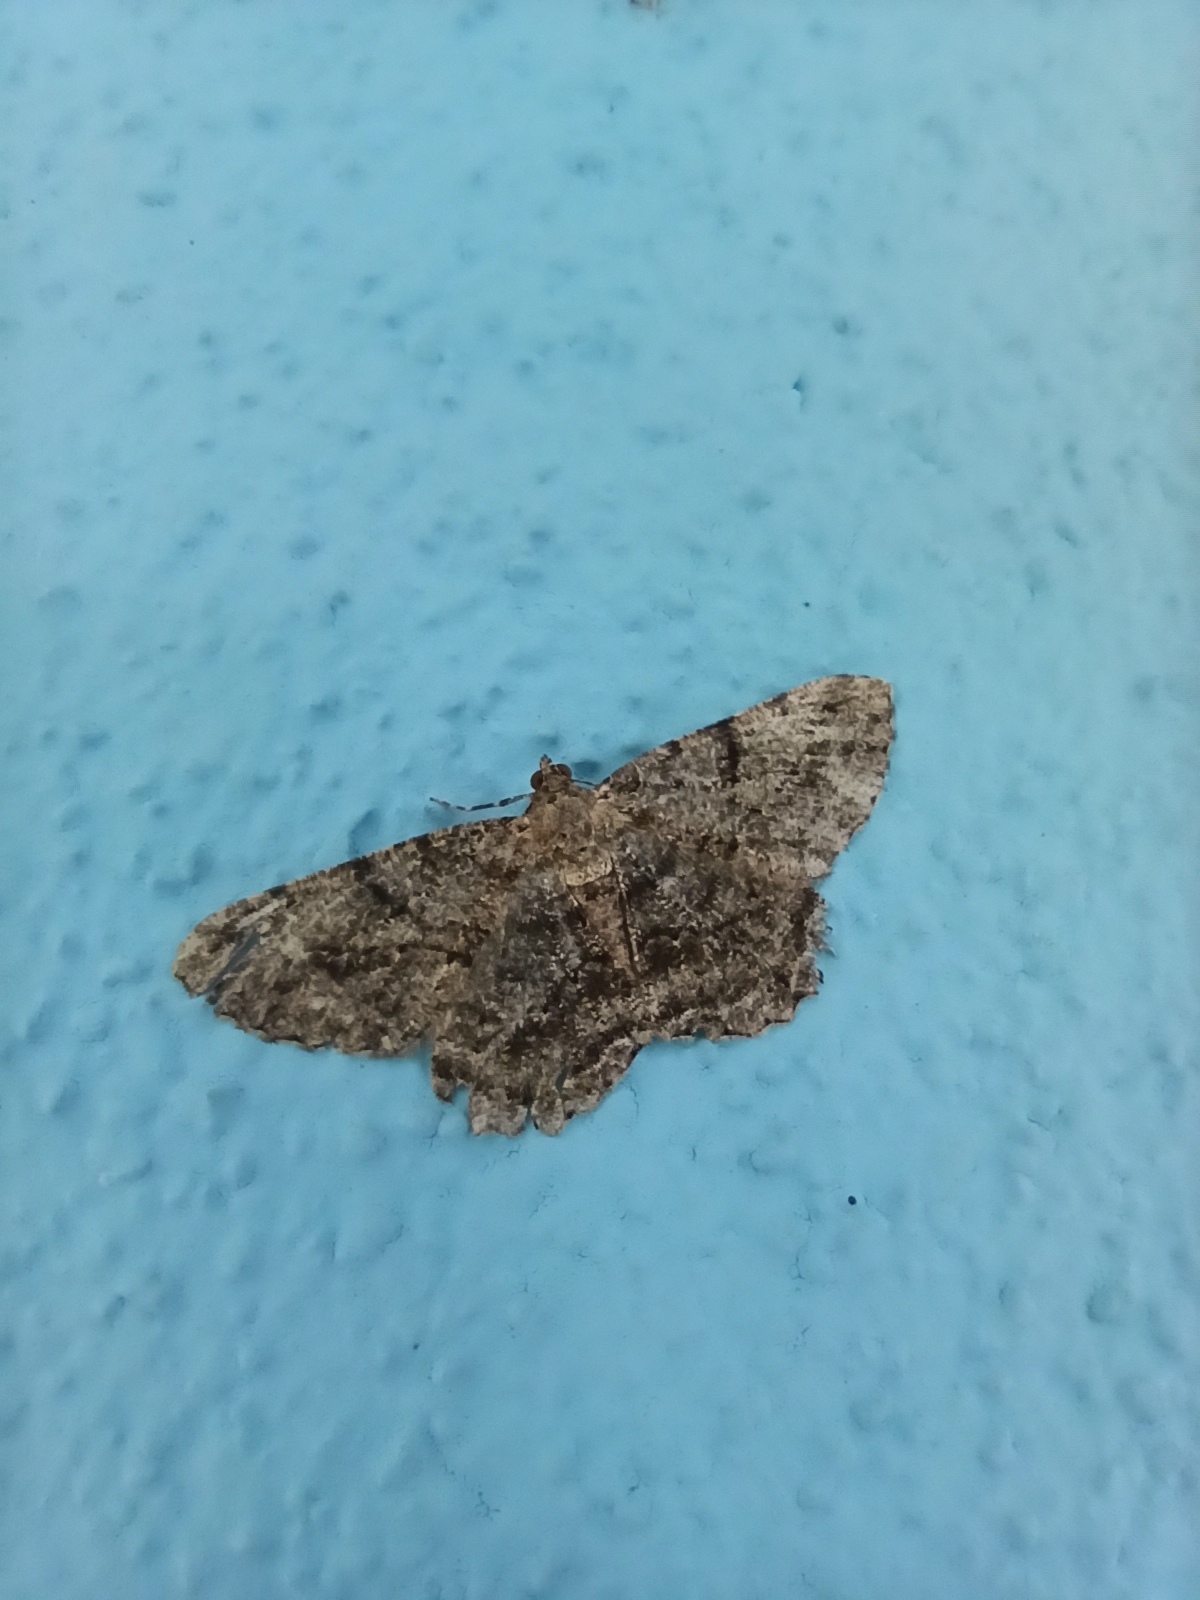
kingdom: Animalia
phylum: Arthropoda
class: Insecta
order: Lepidoptera
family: Geometridae
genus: Peribatodes
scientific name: Peribatodes rhomboidaria
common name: Willow beauty
